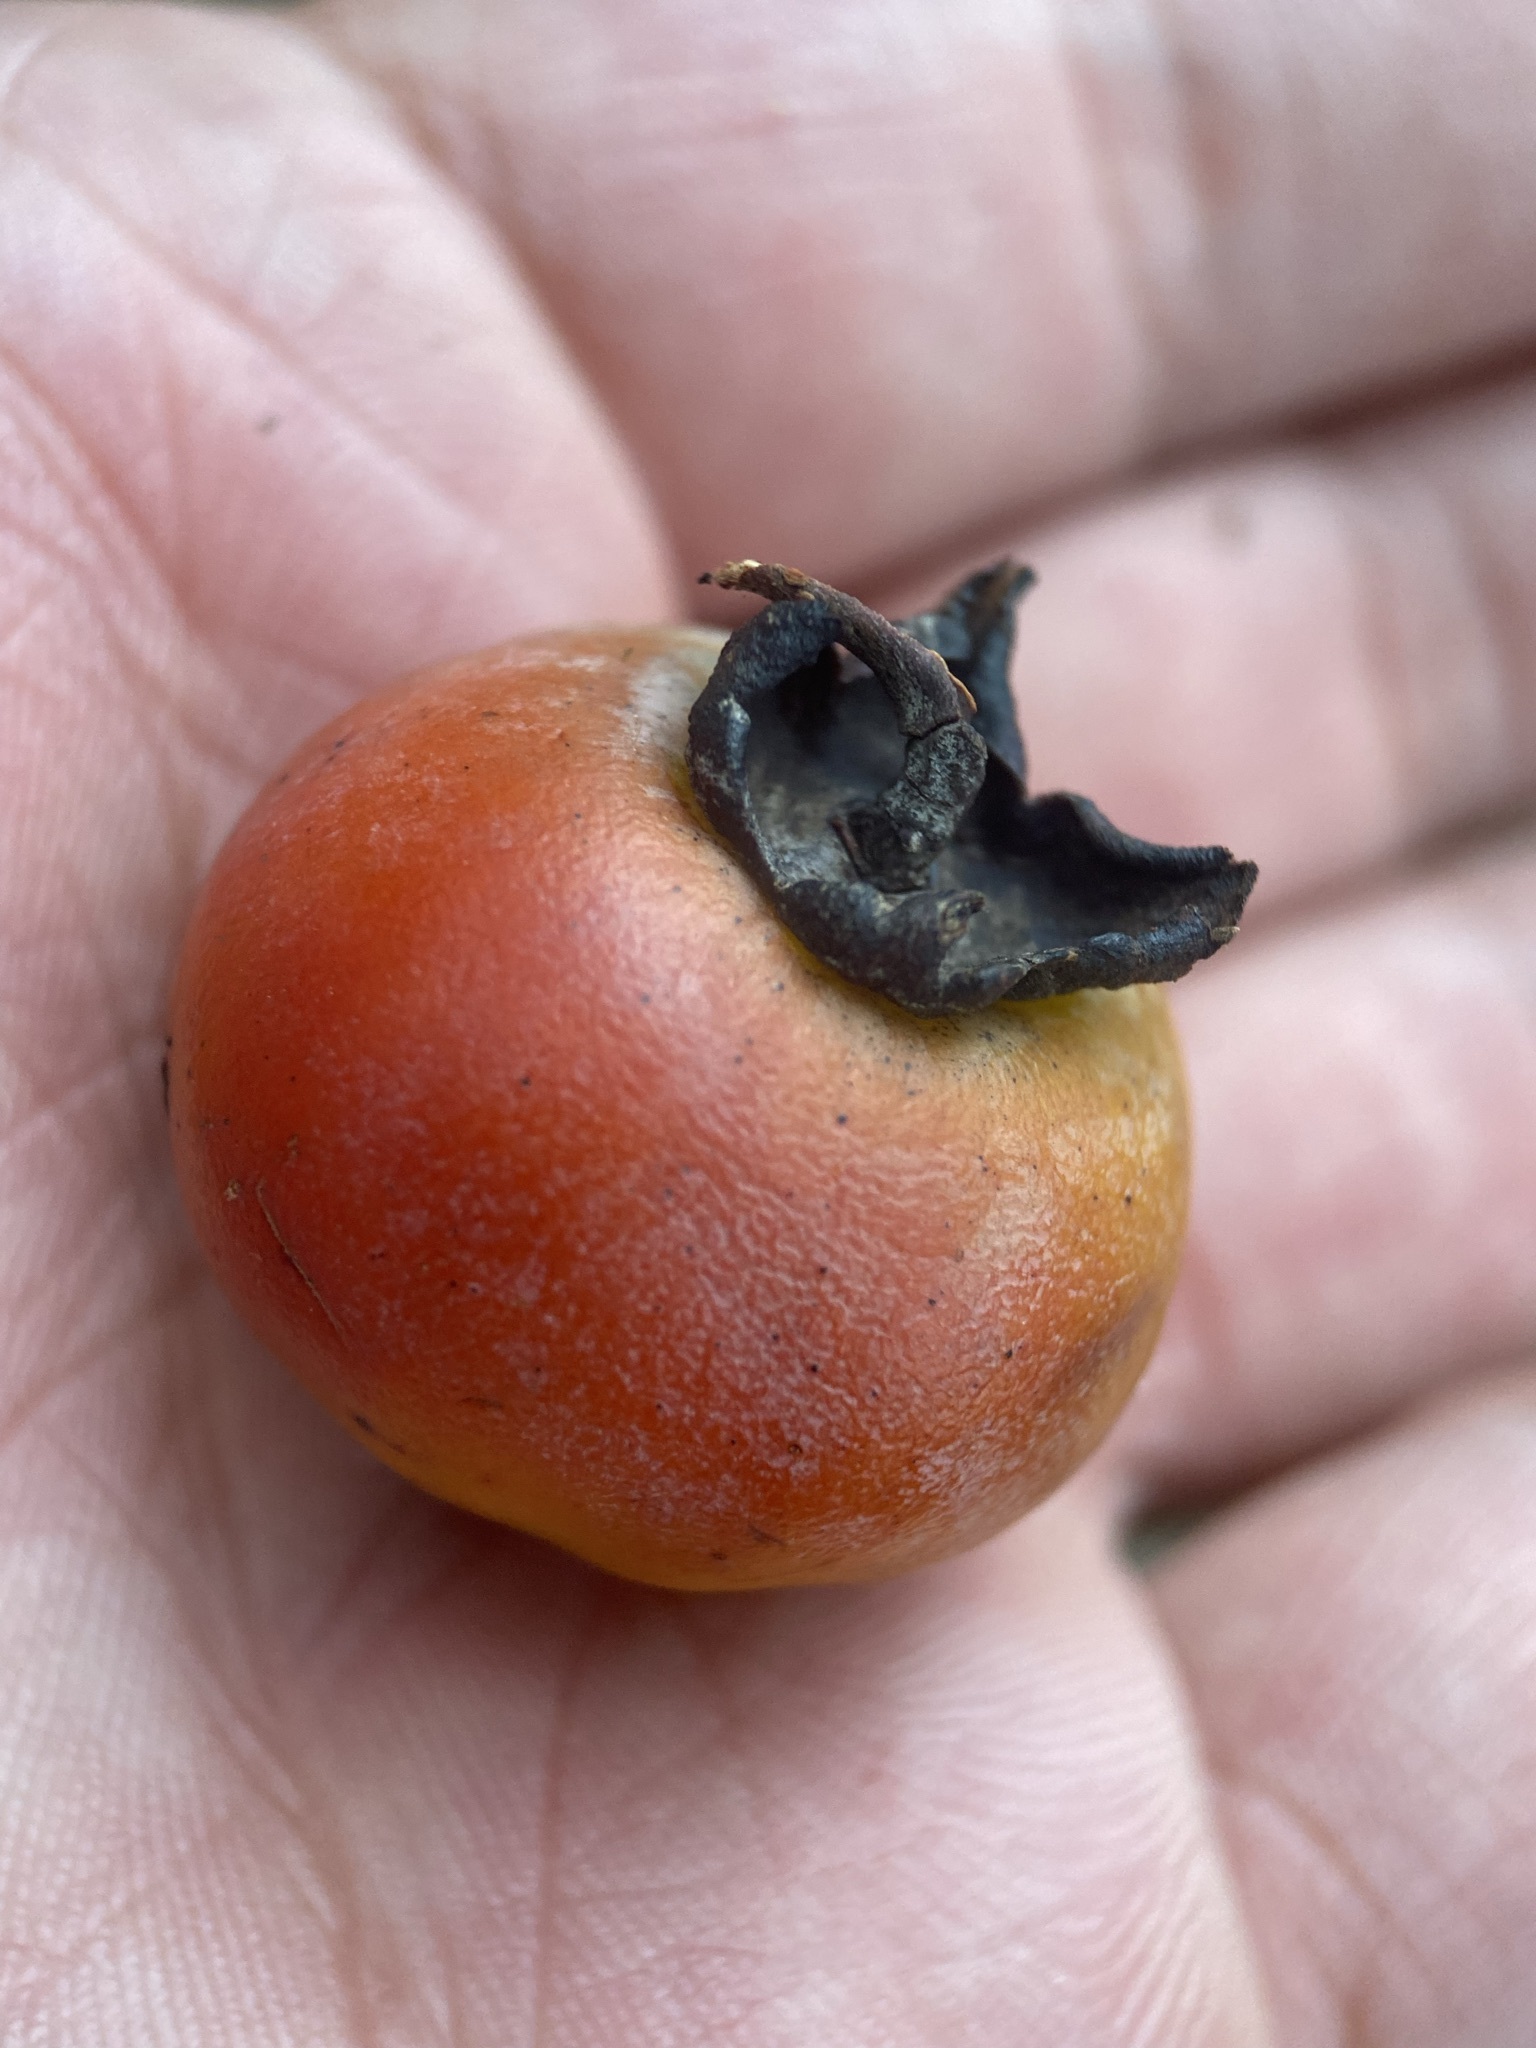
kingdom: Plantae
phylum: Tracheophyta
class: Magnoliopsida
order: Ericales
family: Ebenaceae
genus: Diospyros
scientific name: Diospyros virginiana
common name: Persimmon
